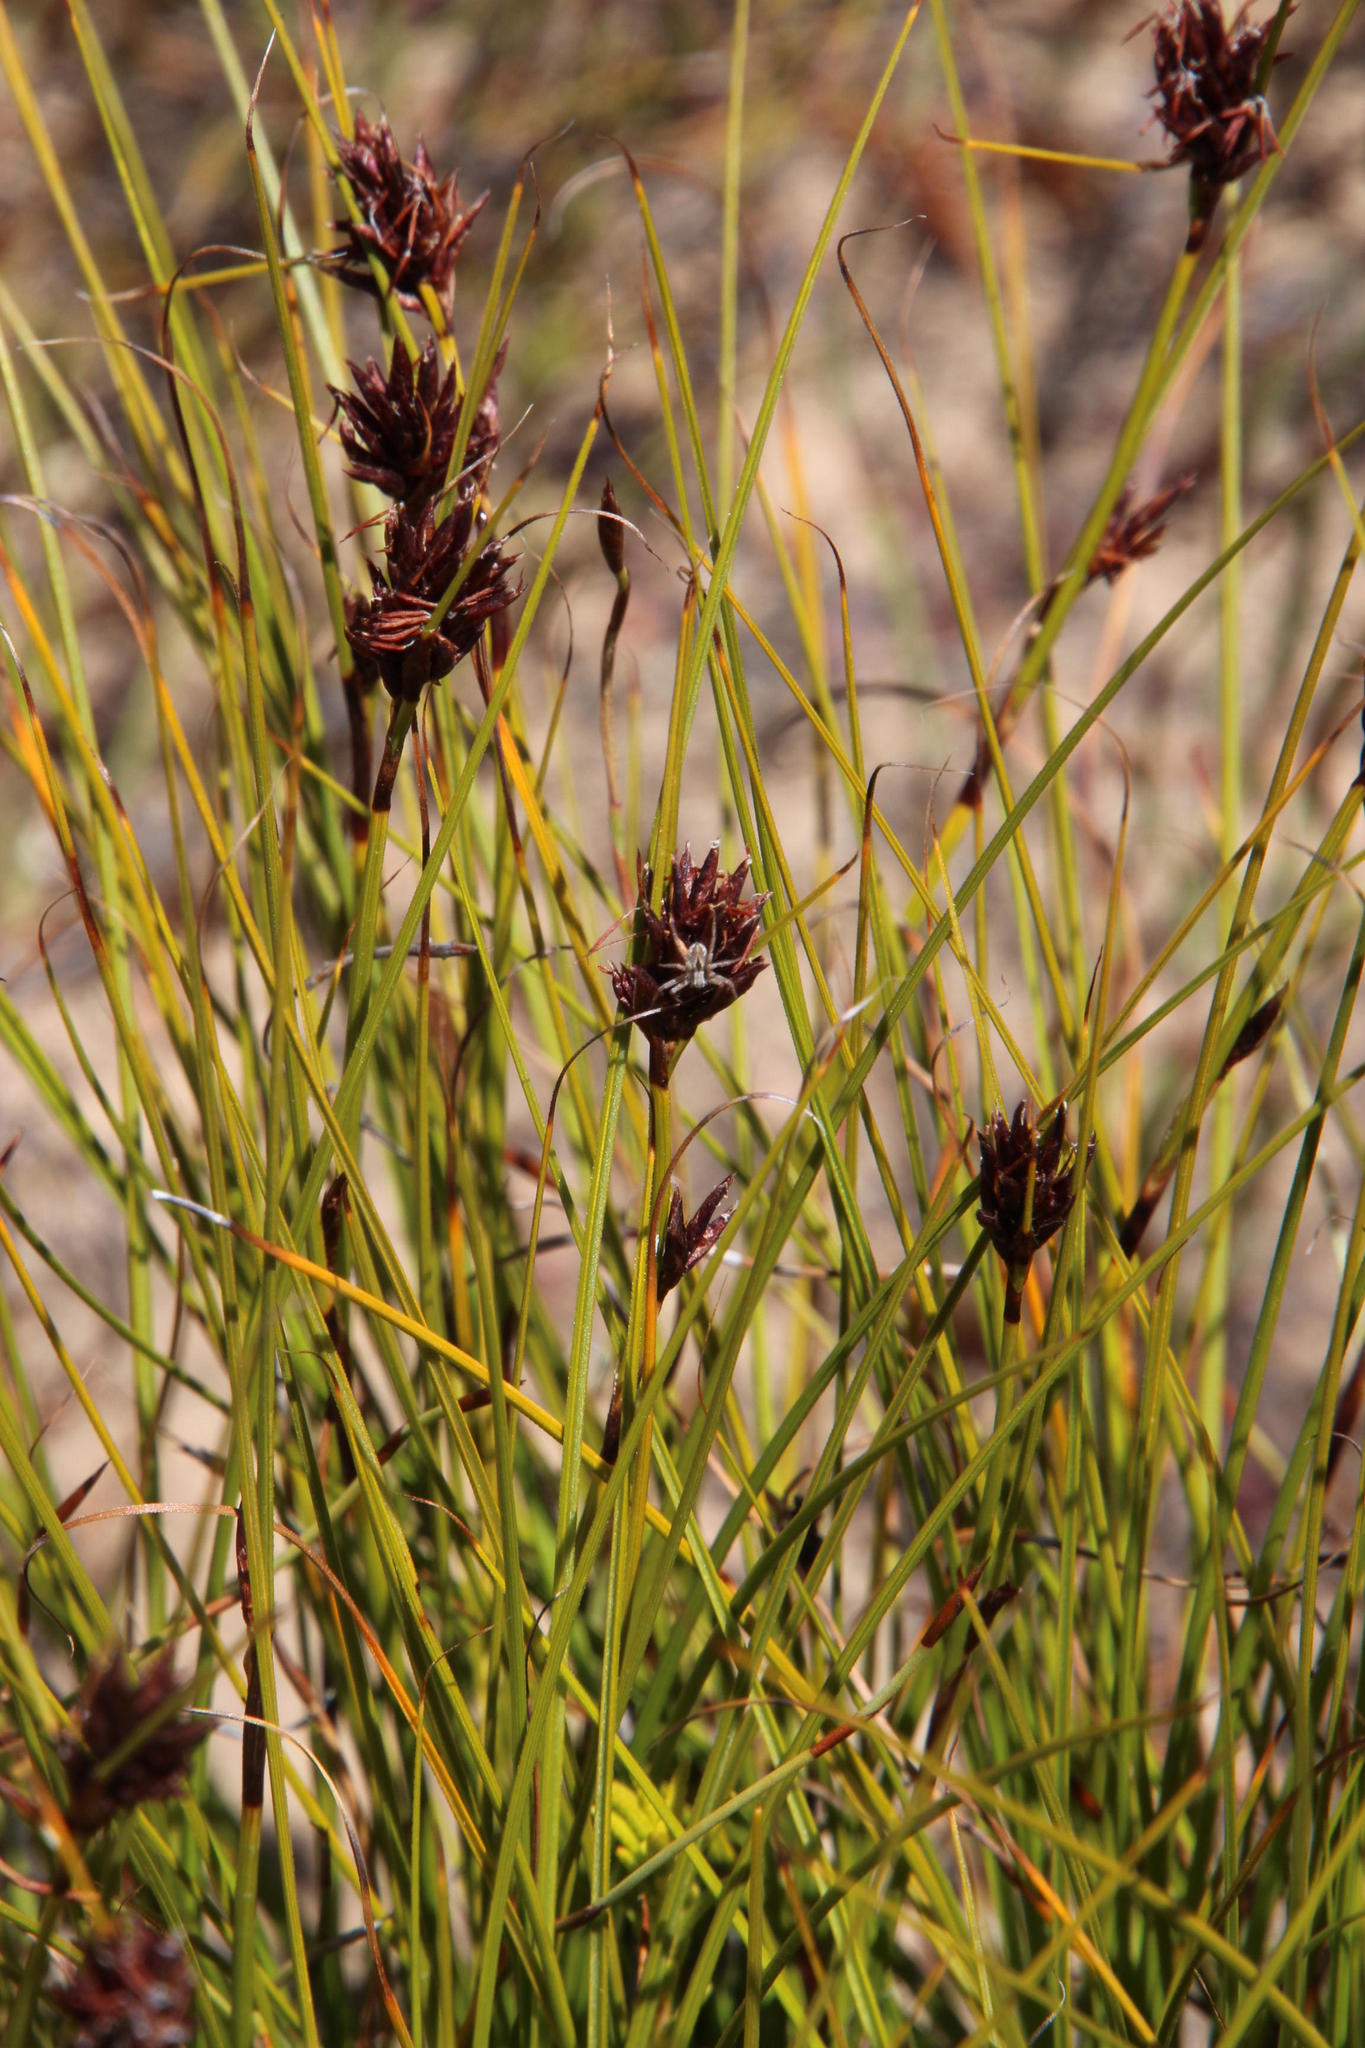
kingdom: Plantae
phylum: Tracheophyta
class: Liliopsida
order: Poales
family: Cyperaceae
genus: Tetraria
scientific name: Tetraria crinifolia
